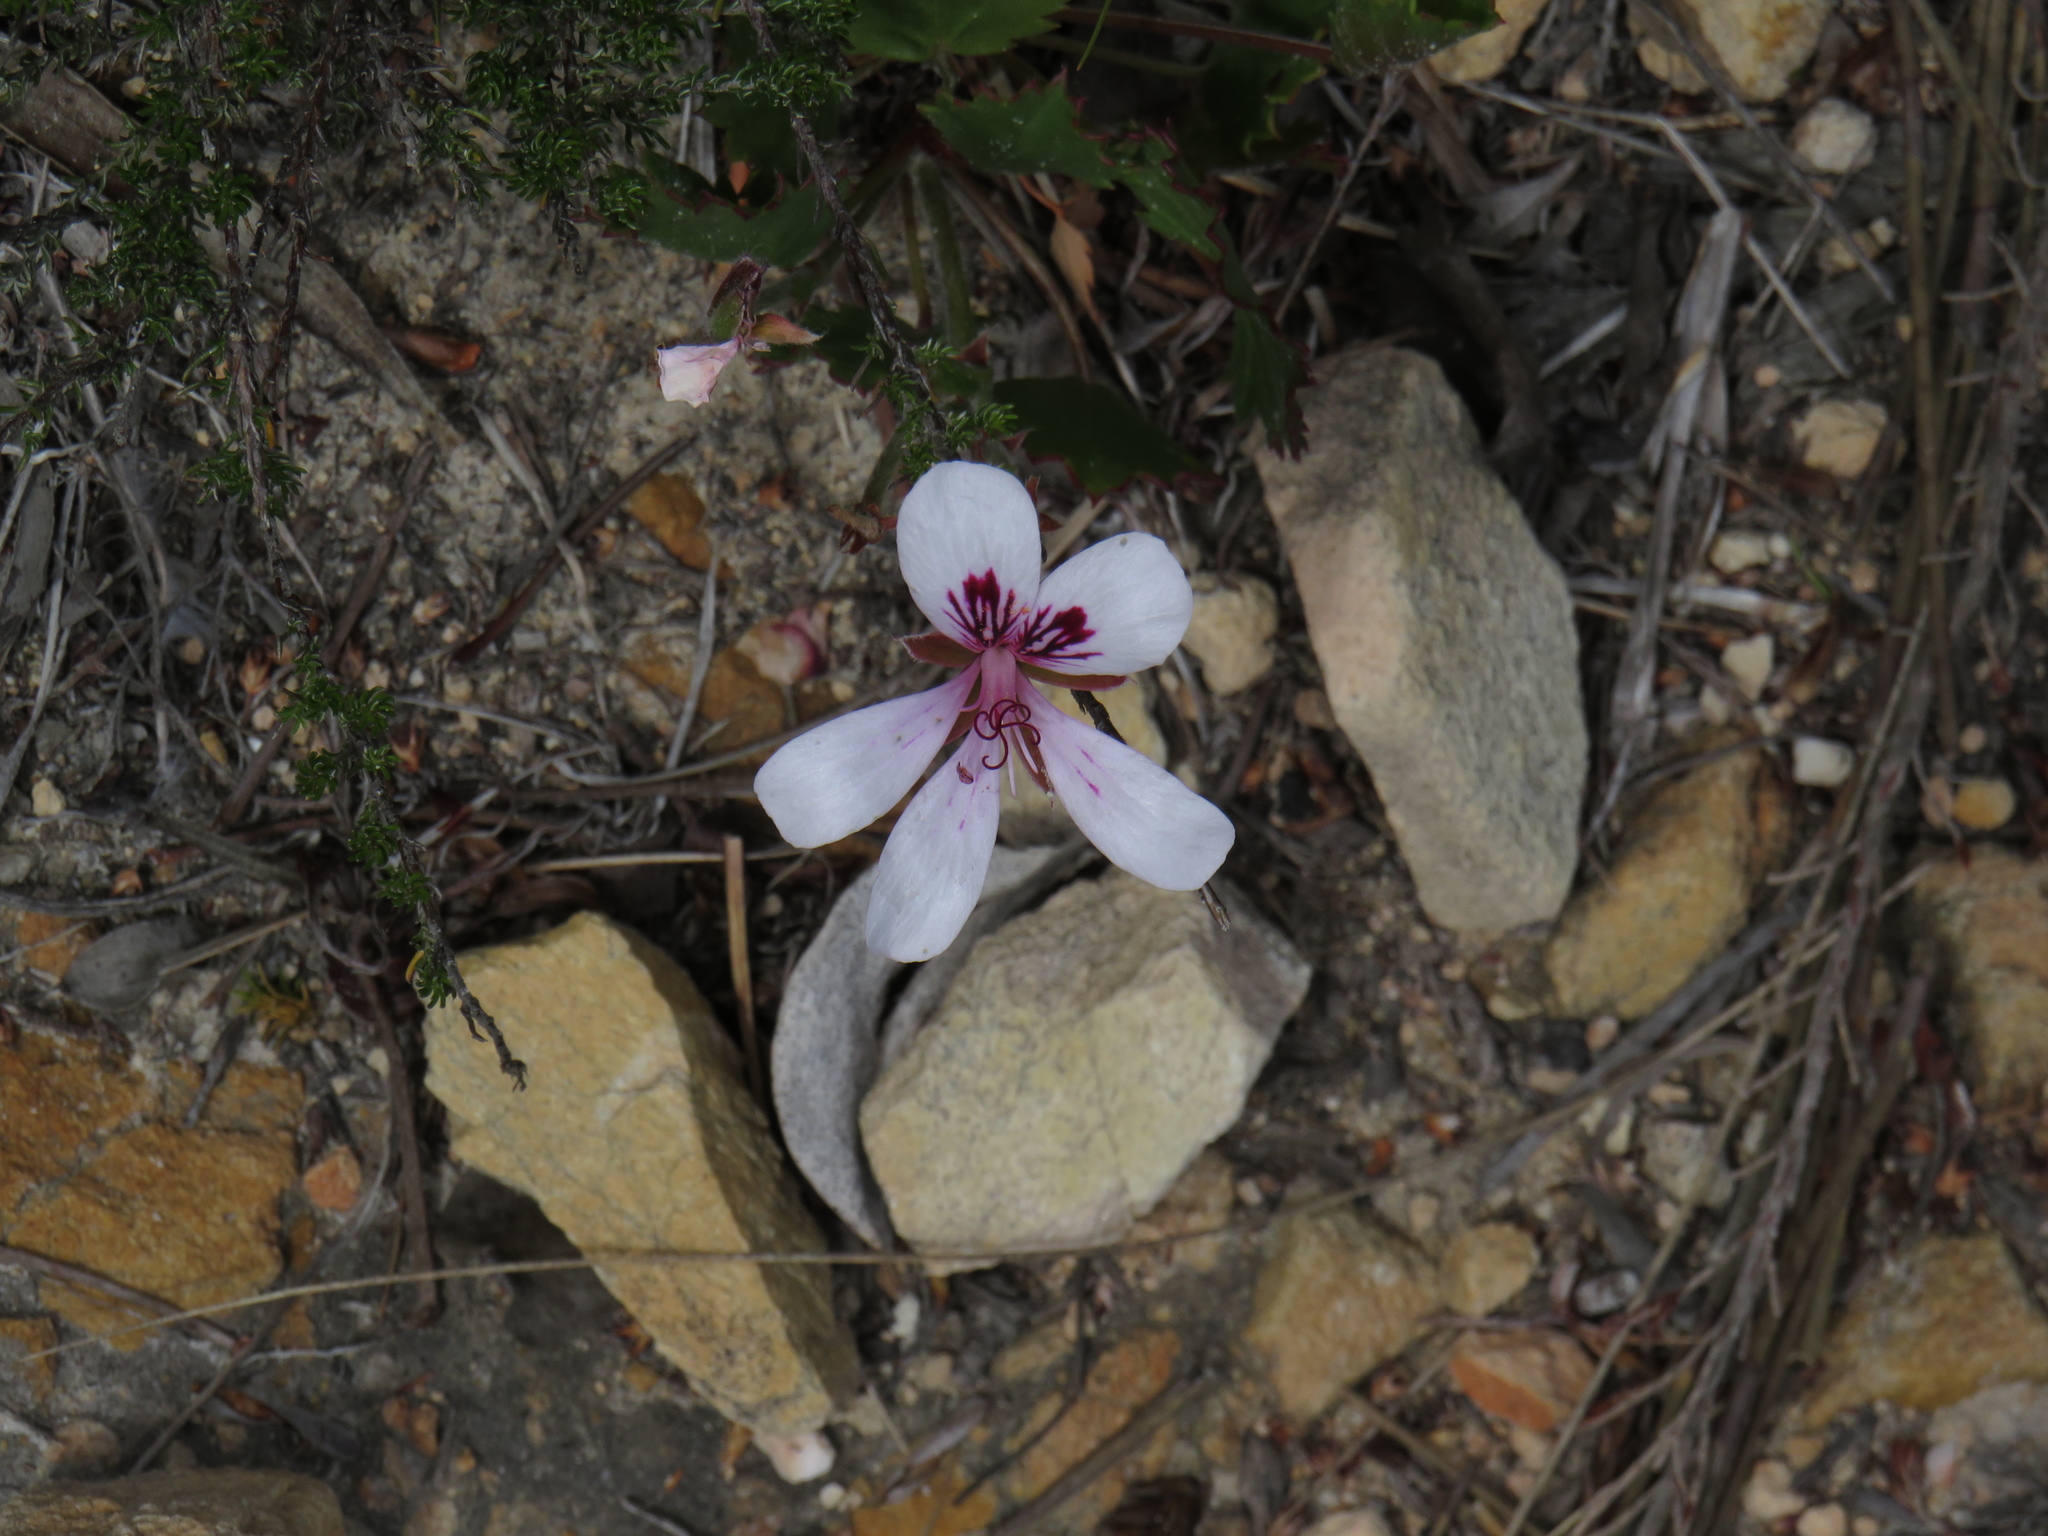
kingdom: Plantae
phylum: Tracheophyta
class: Magnoliopsida
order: Geraniales
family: Geraniaceae
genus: Pelargonium
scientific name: Pelargonium elegans
